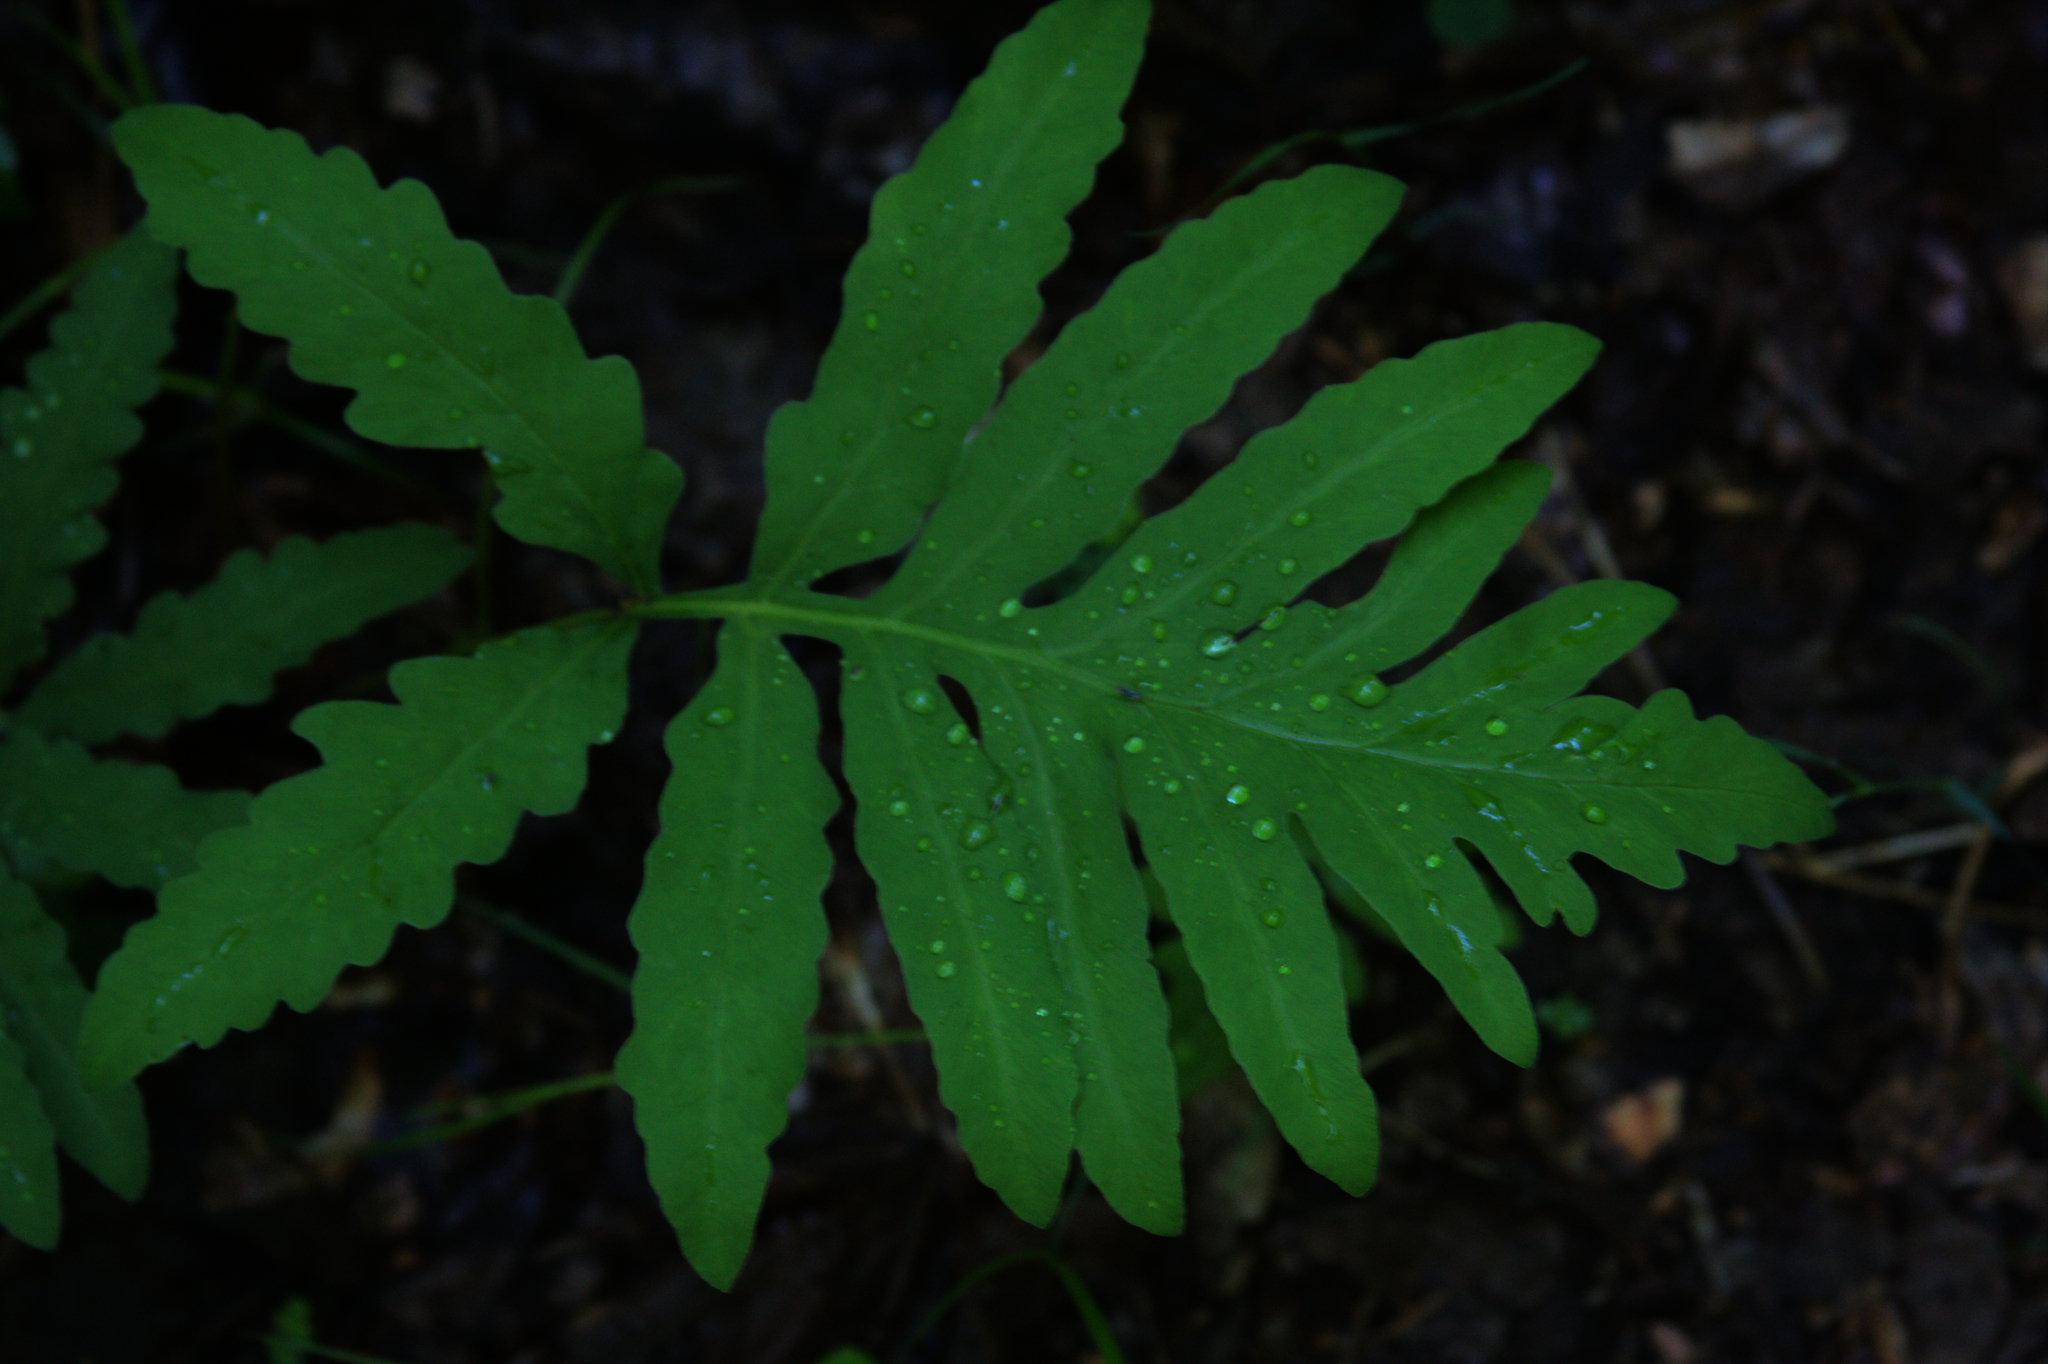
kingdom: Plantae
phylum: Tracheophyta
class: Polypodiopsida
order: Polypodiales
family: Onocleaceae
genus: Onoclea
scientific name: Onoclea sensibilis
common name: Sensitive fern
